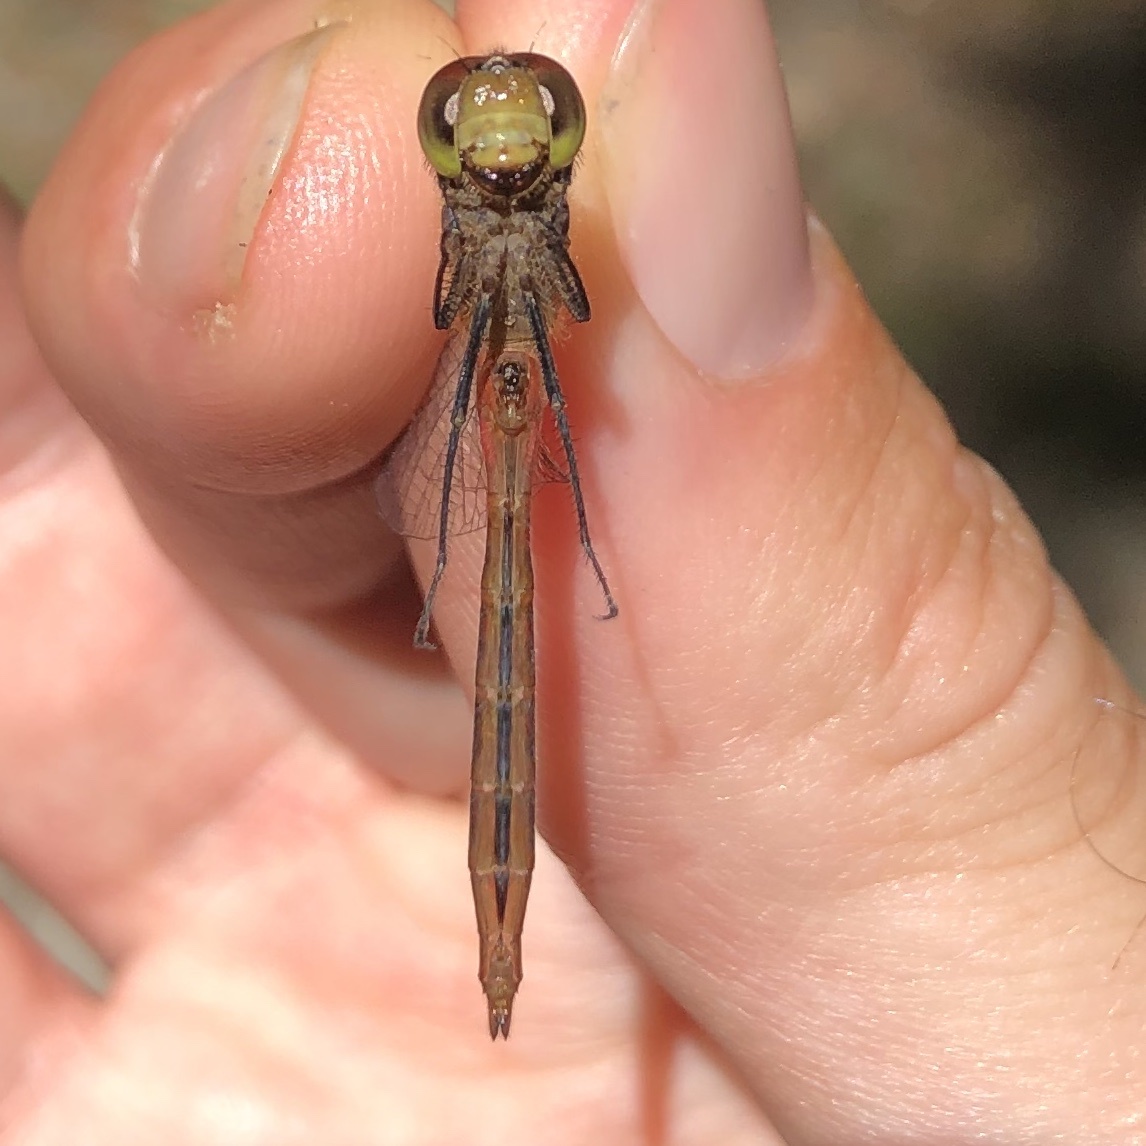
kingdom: Animalia
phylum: Arthropoda
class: Insecta
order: Odonata
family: Libellulidae
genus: Sympetrum
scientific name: Sympetrum internum
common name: Cherry-faced meadowhawk
